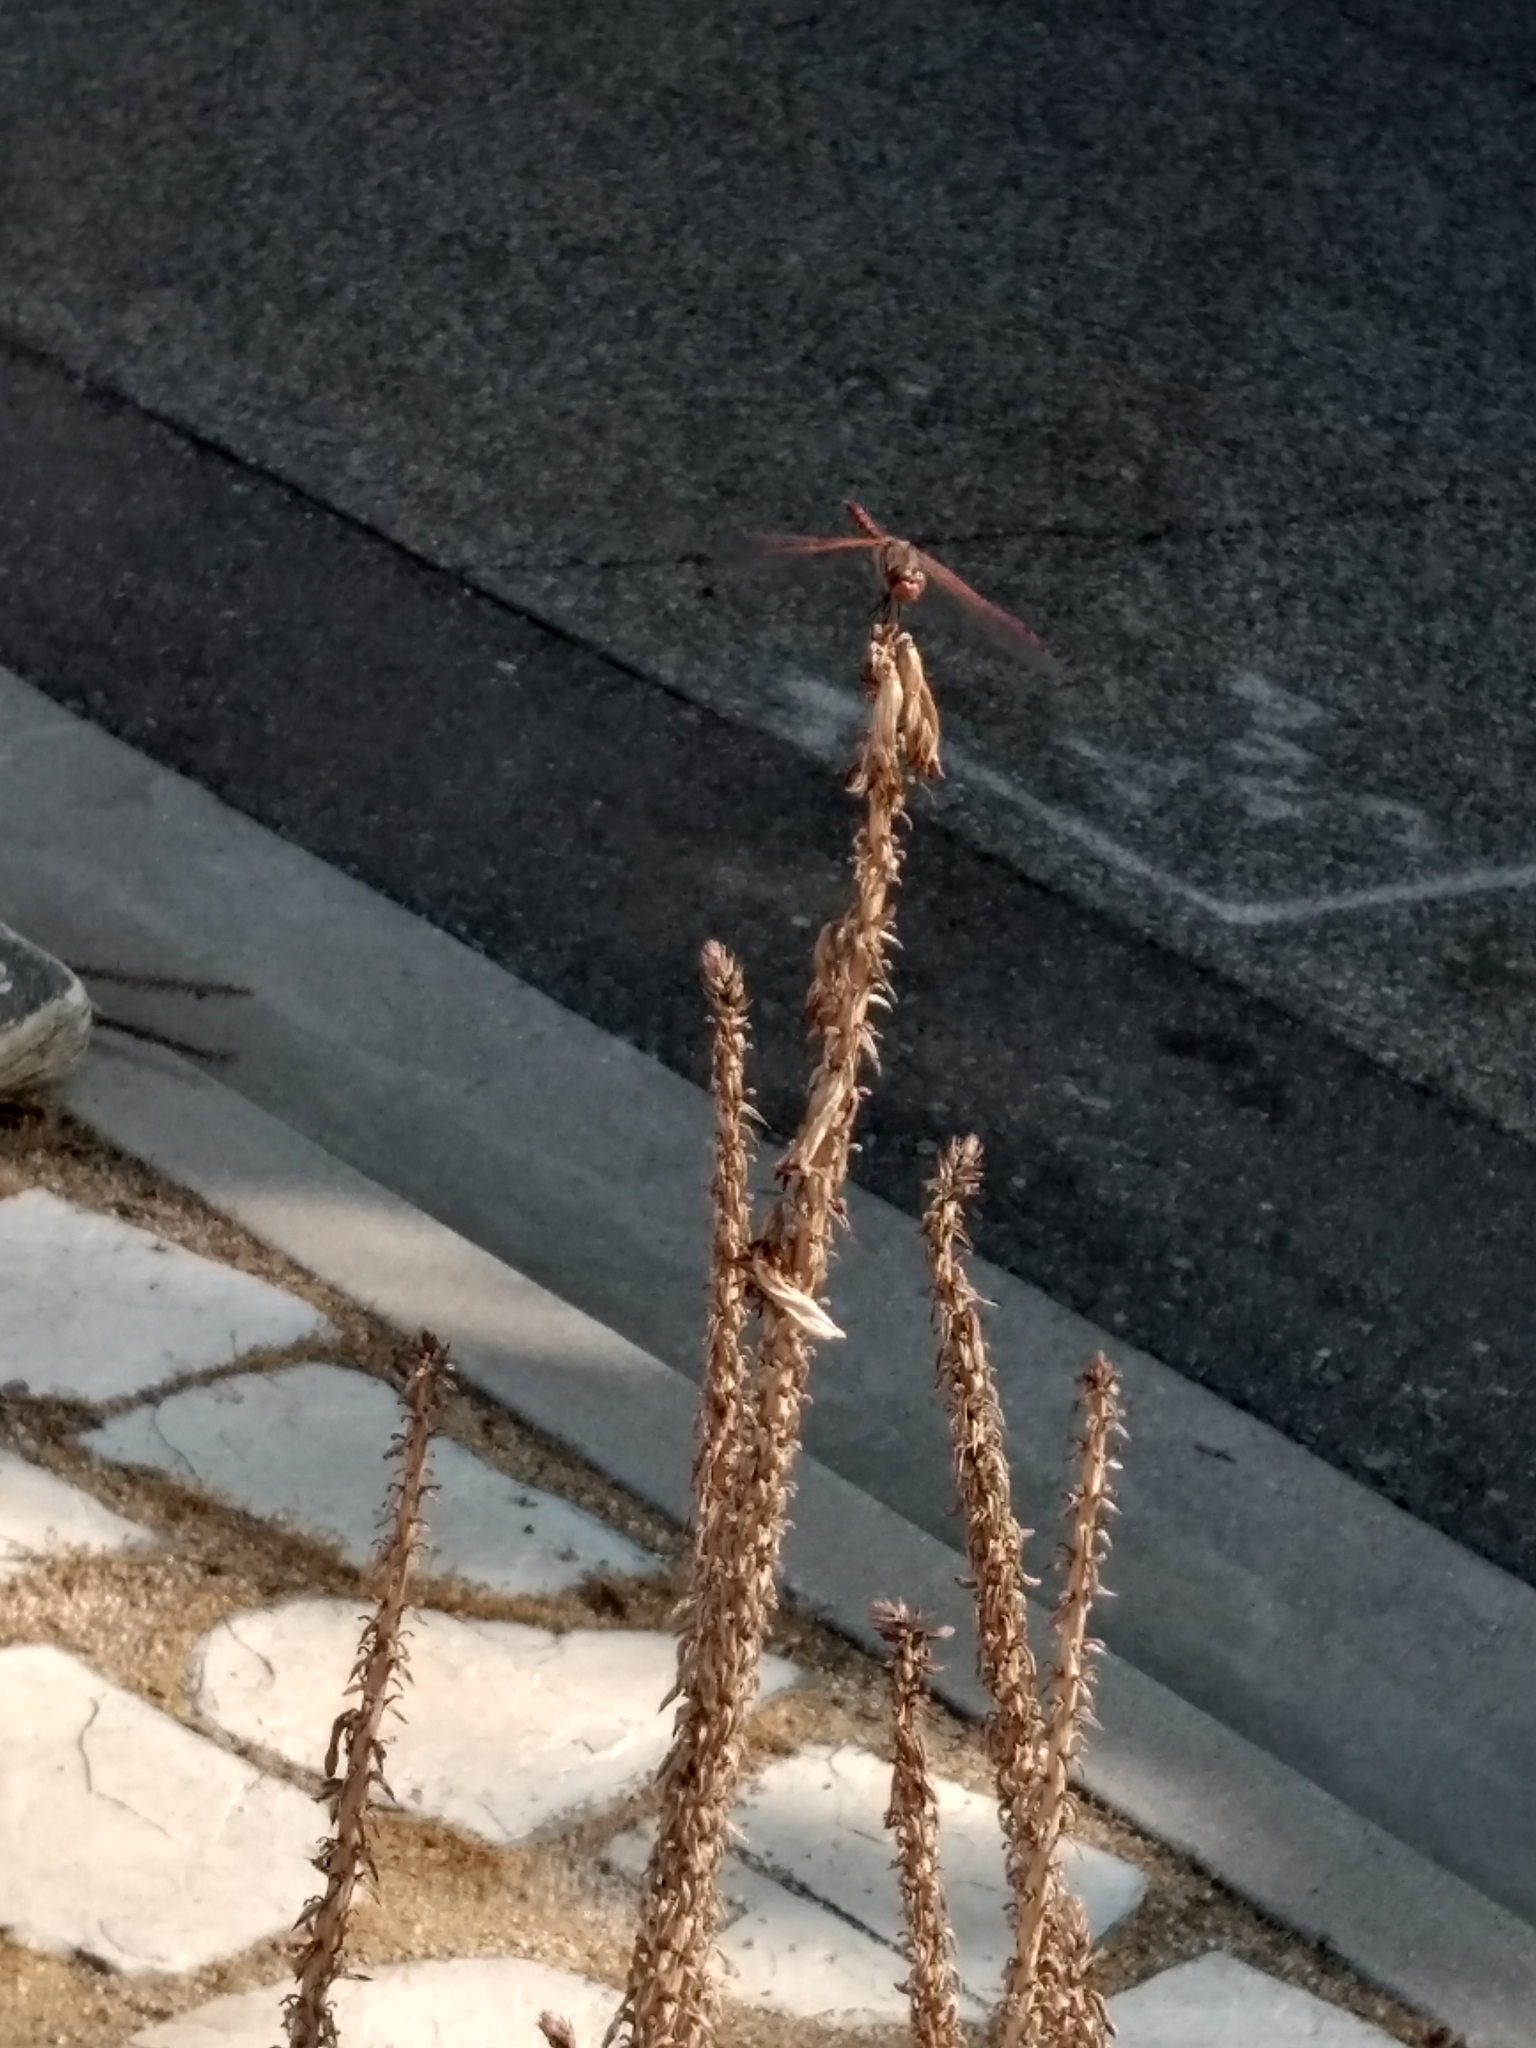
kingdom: Animalia
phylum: Arthropoda
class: Insecta
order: Odonata
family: Libellulidae
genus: Sympetrum
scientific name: Sympetrum corruptum
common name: Variegated meadowhawk
